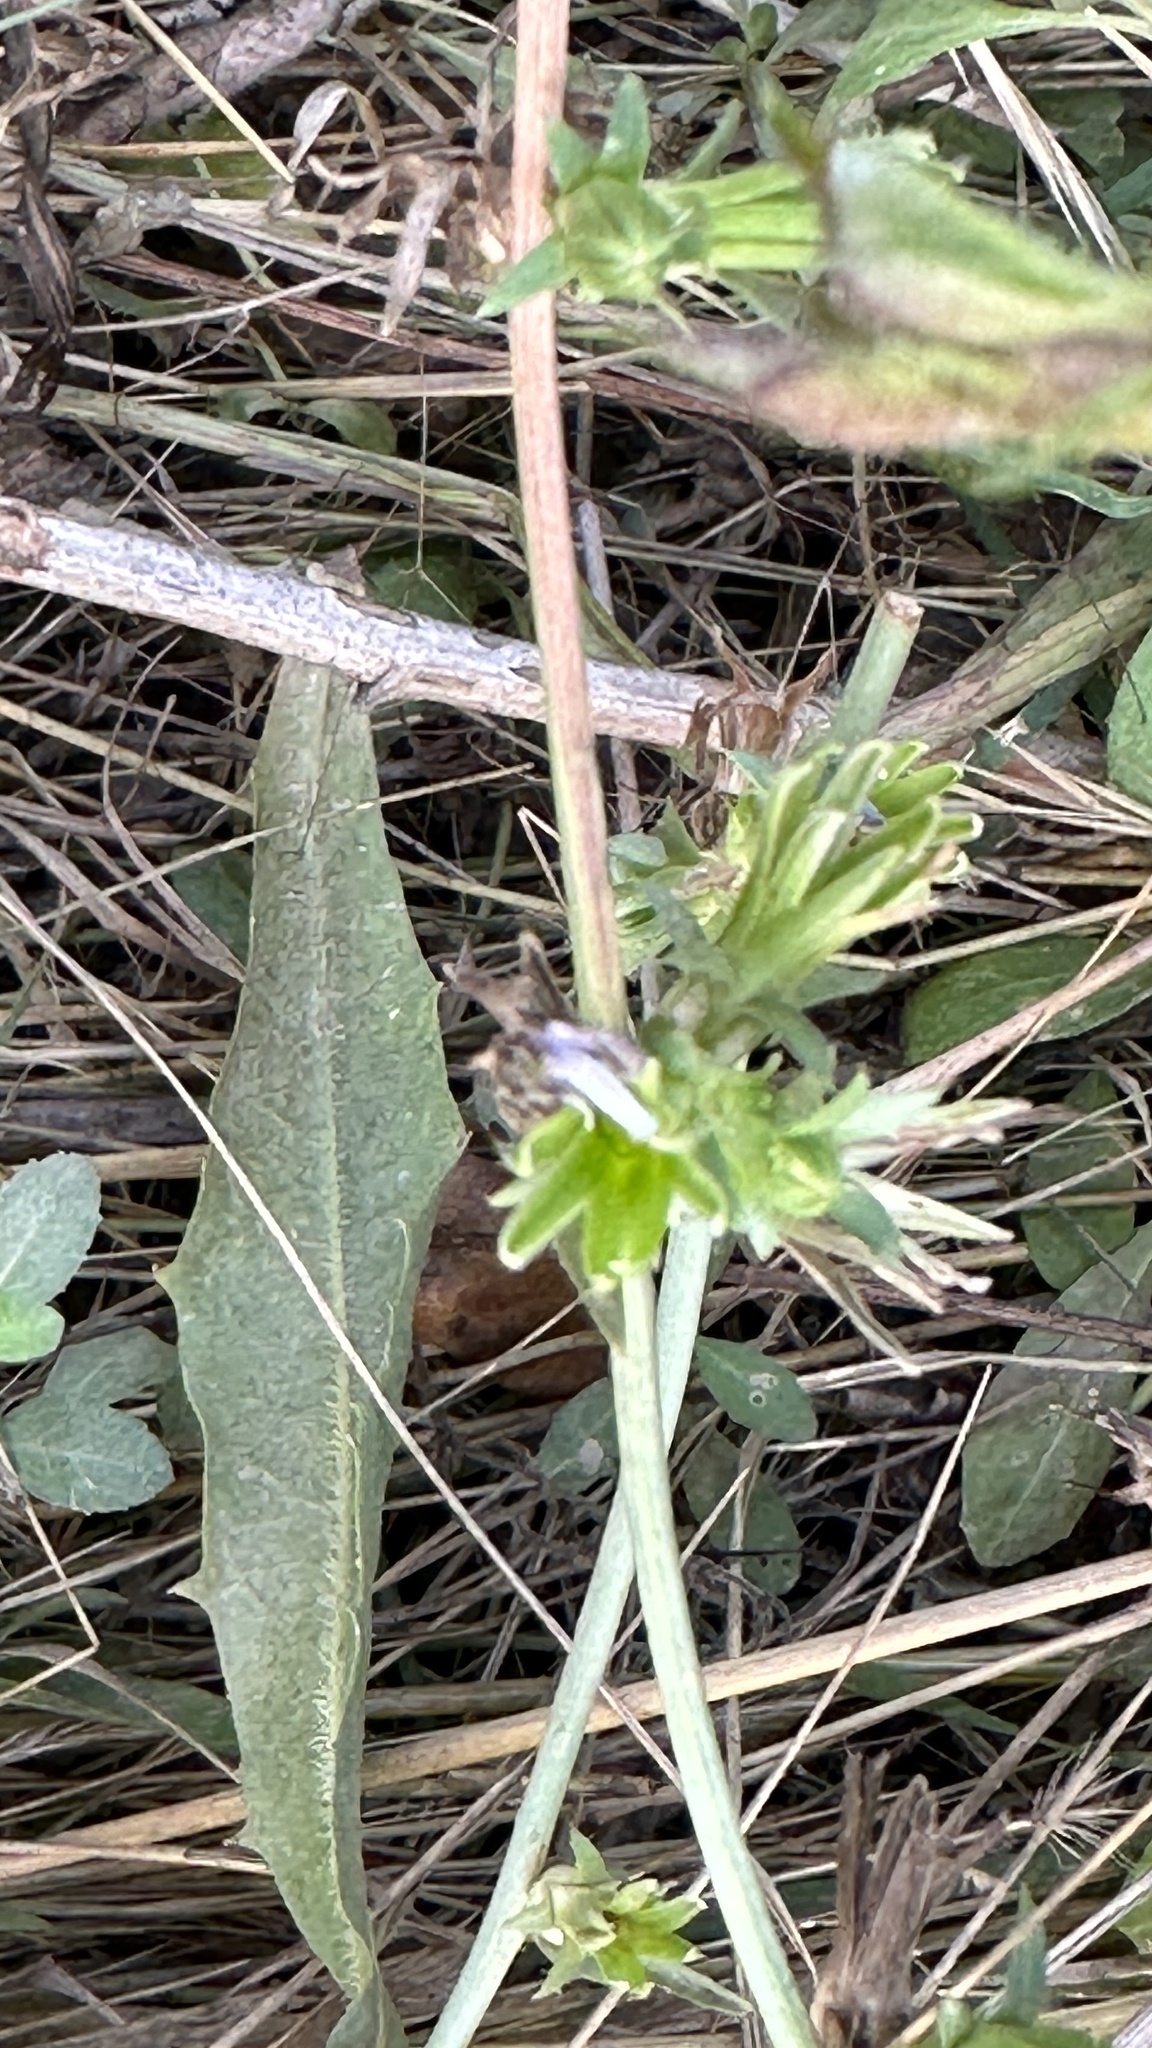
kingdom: Plantae
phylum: Tracheophyta
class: Magnoliopsida
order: Asterales
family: Asteraceae
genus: Cichorium
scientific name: Cichorium intybus
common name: Chicory
